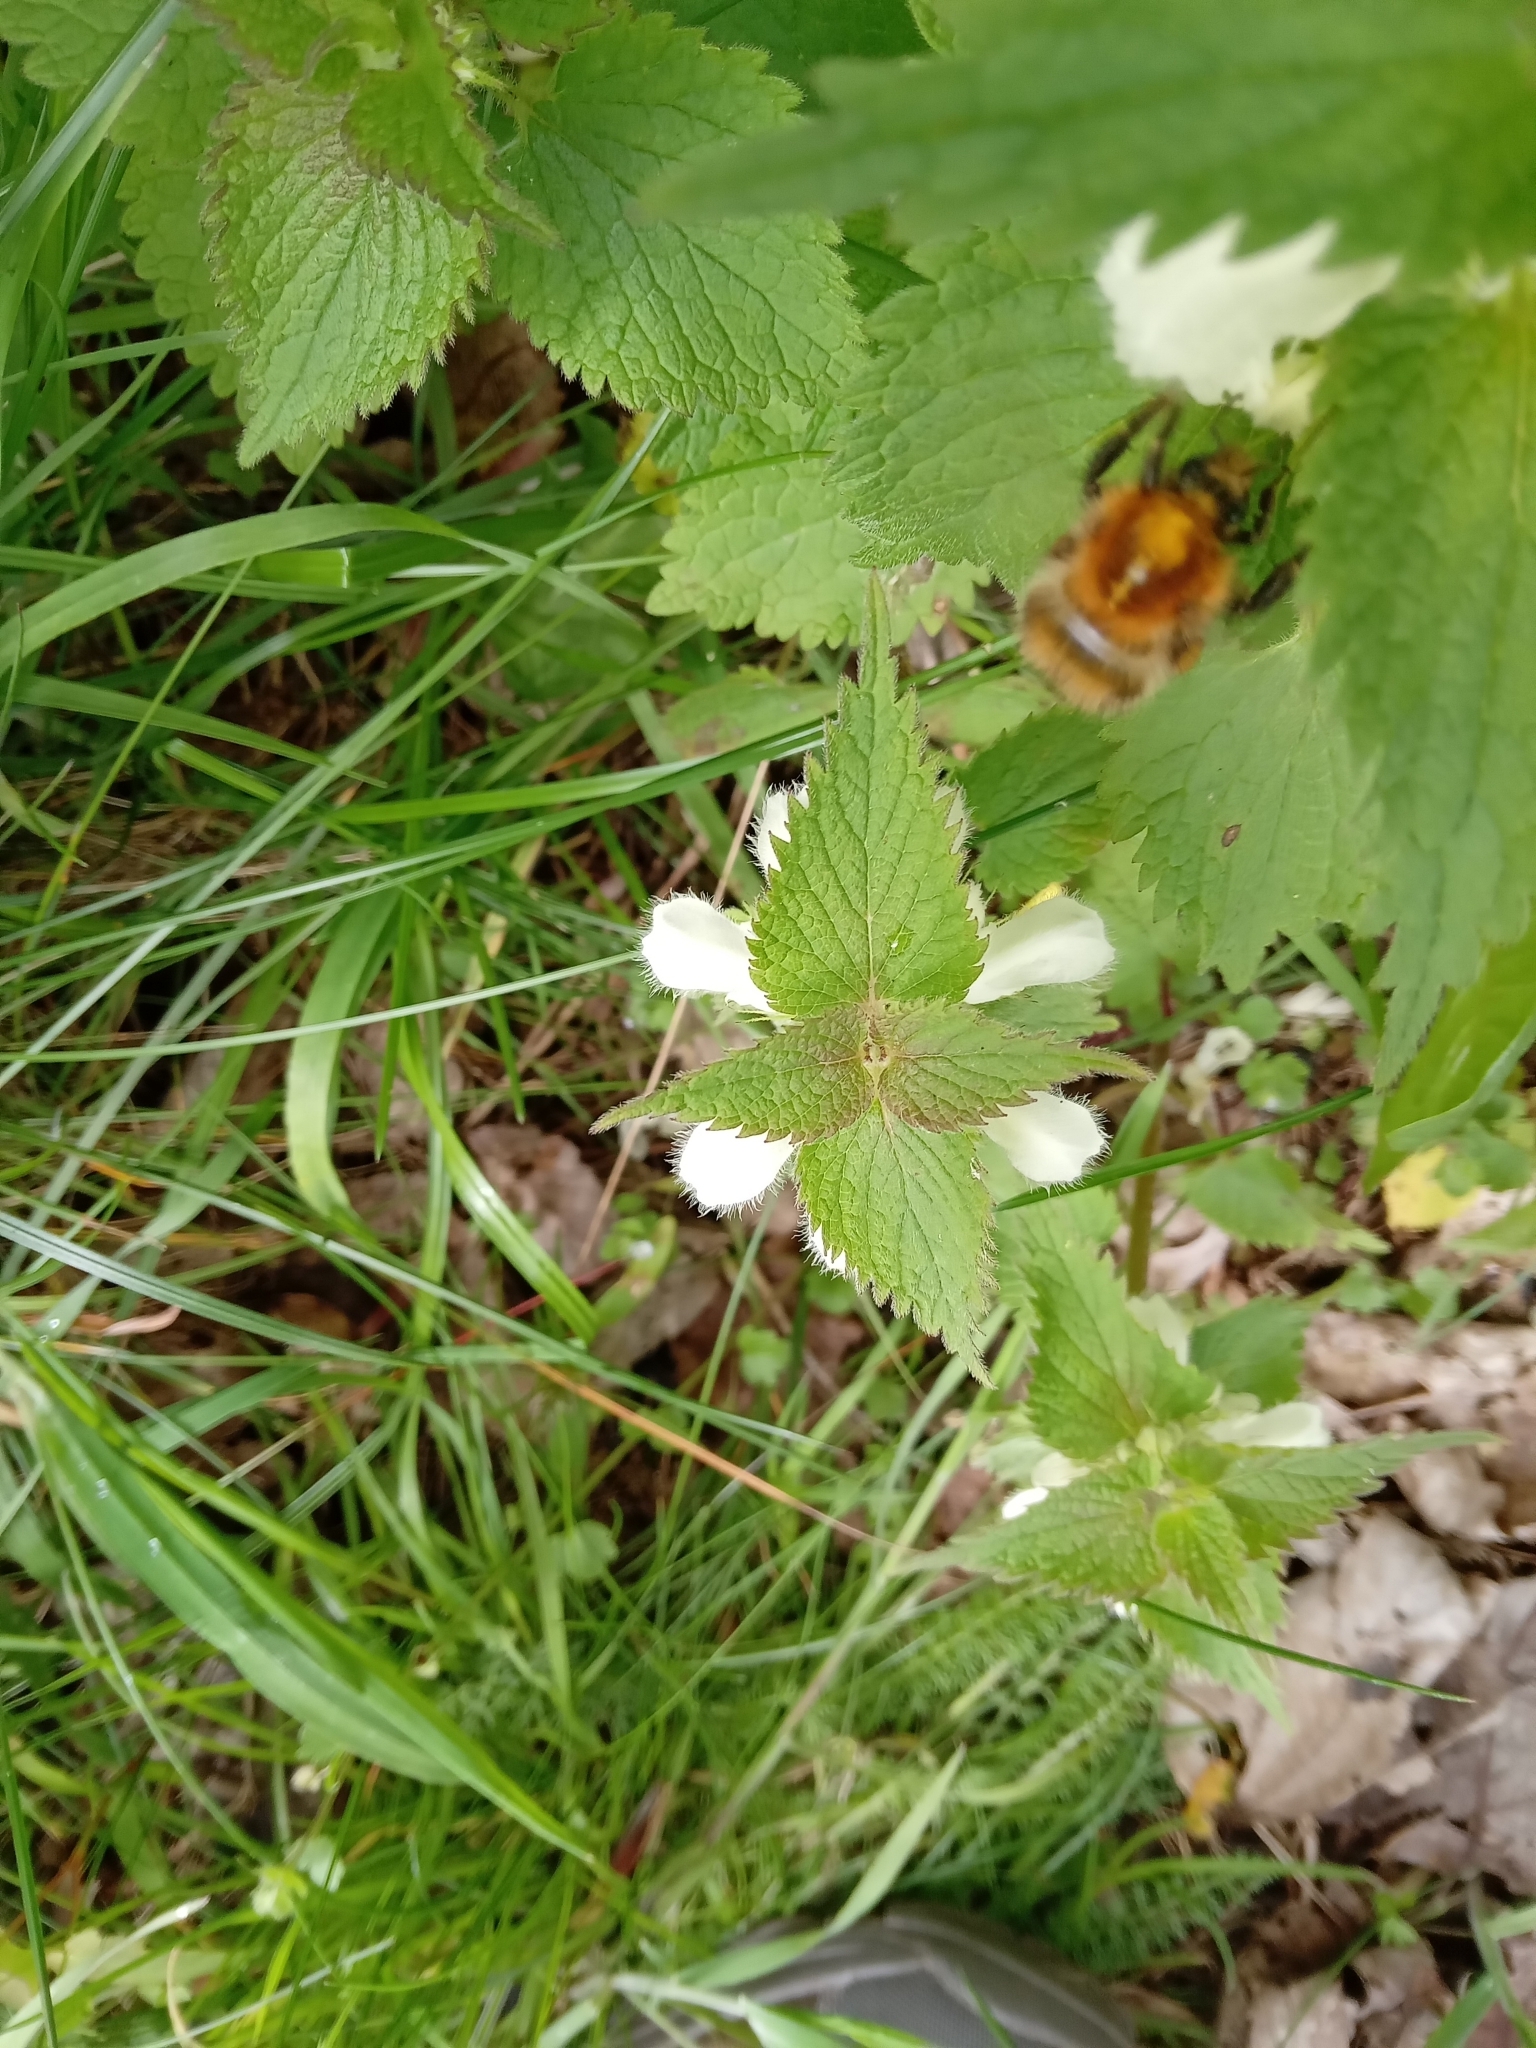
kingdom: Animalia
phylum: Arthropoda
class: Insecta
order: Hymenoptera
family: Apidae
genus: Bombus
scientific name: Bombus pascuorum
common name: Common carder bee
